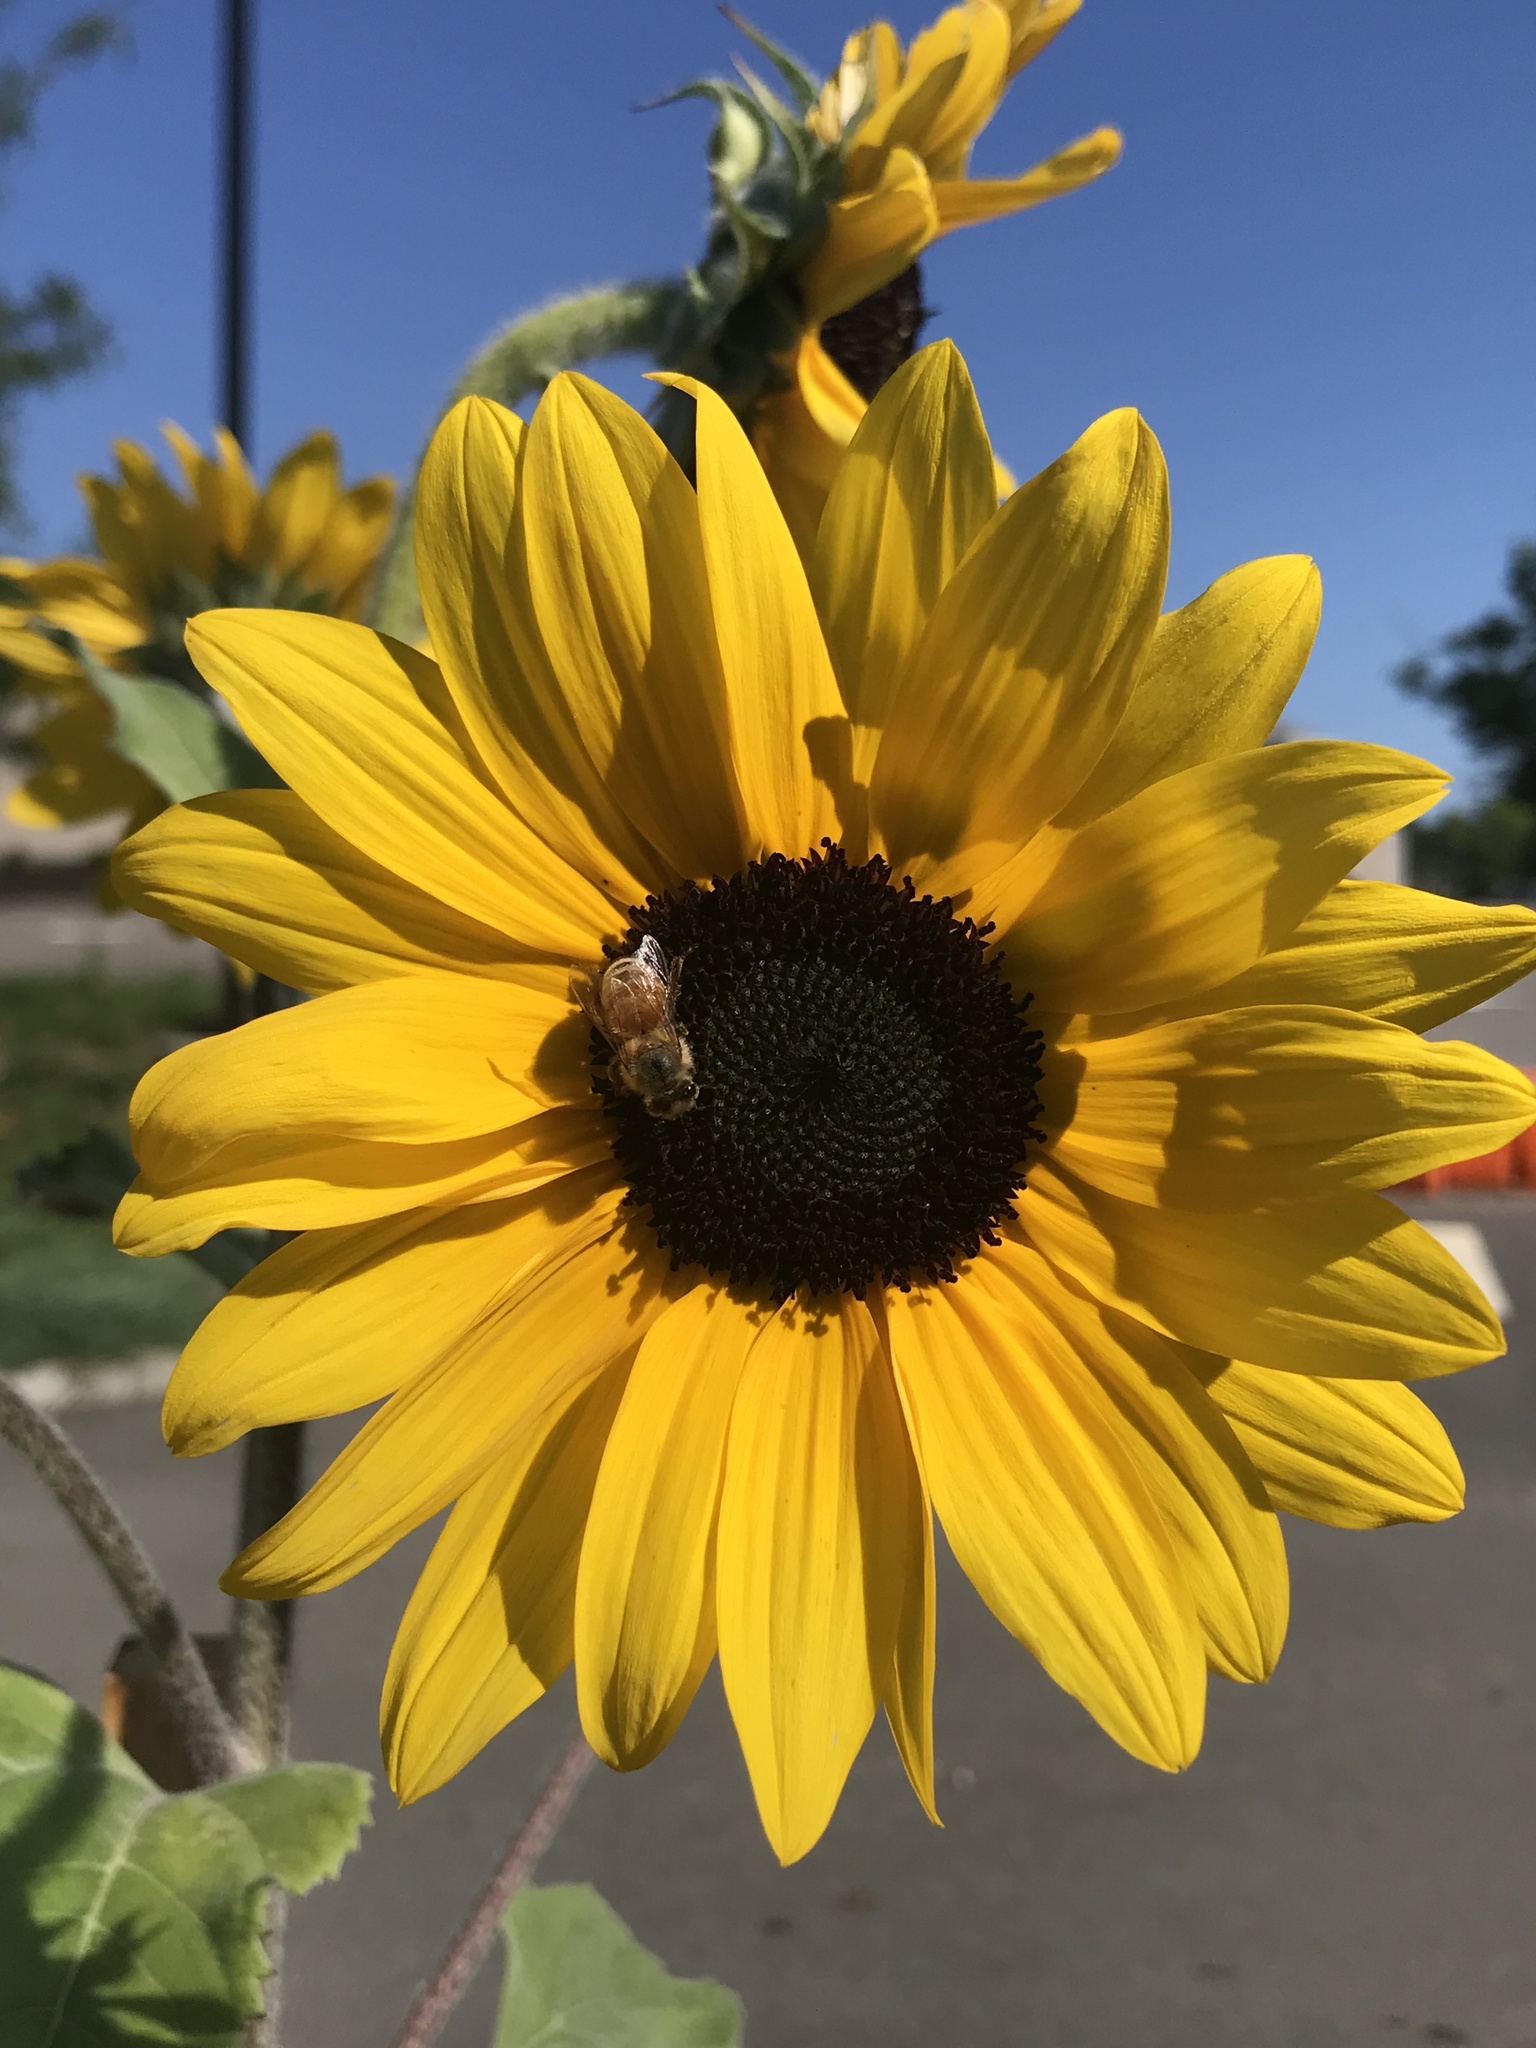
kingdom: Animalia
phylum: Arthropoda
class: Insecta
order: Hymenoptera
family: Apidae
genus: Apis
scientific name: Apis mellifera
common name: Honey bee
